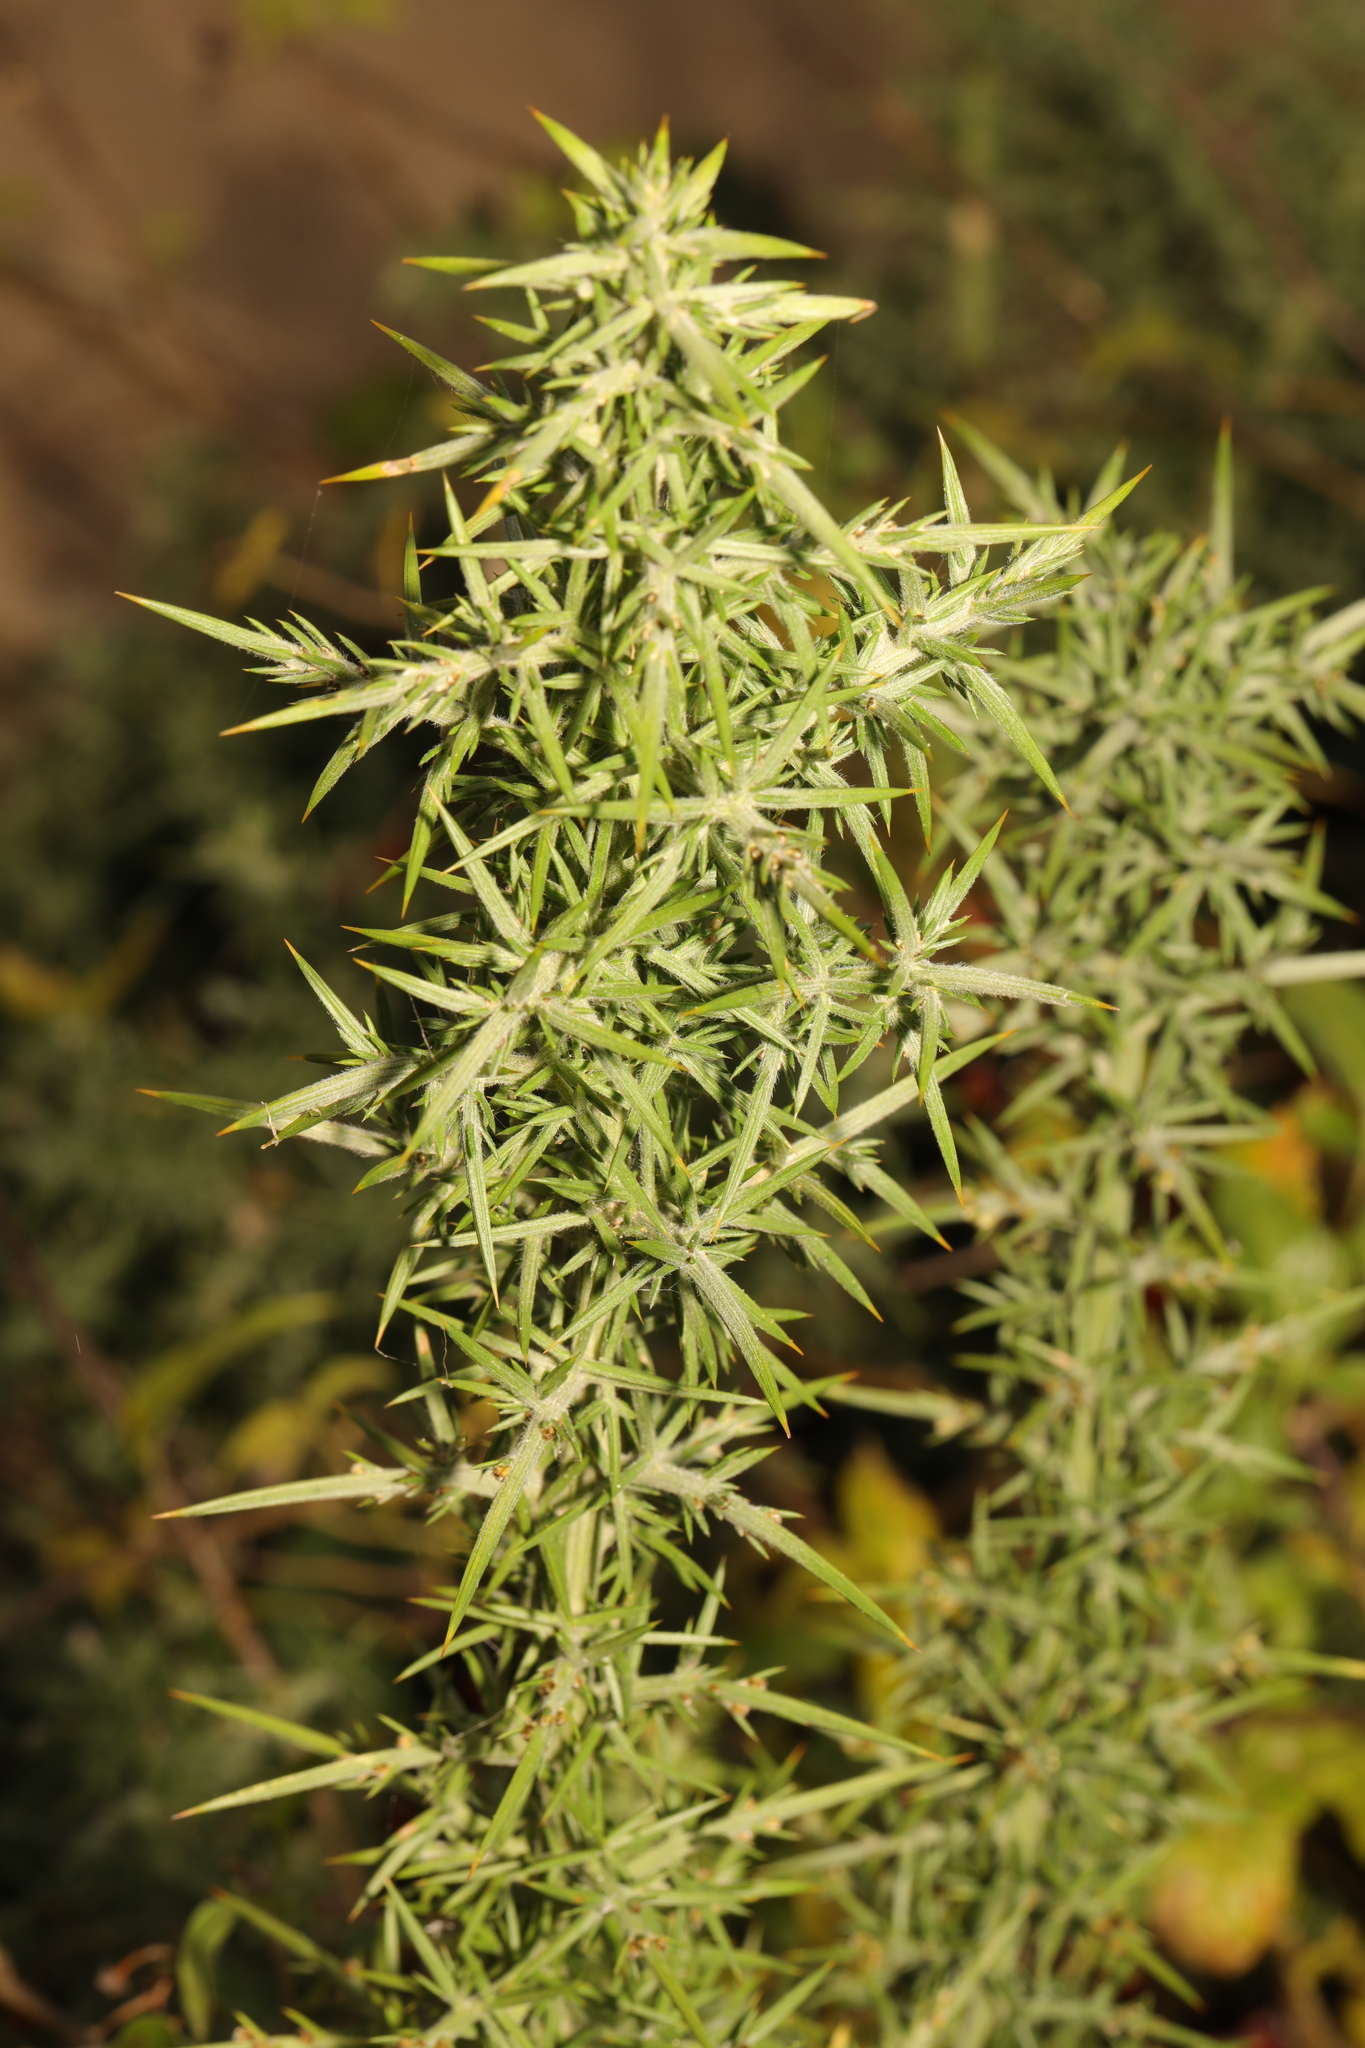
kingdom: Plantae
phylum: Tracheophyta
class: Magnoliopsida
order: Fabales
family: Fabaceae
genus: Ulex
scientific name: Ulex europaeus
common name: Common gorse
